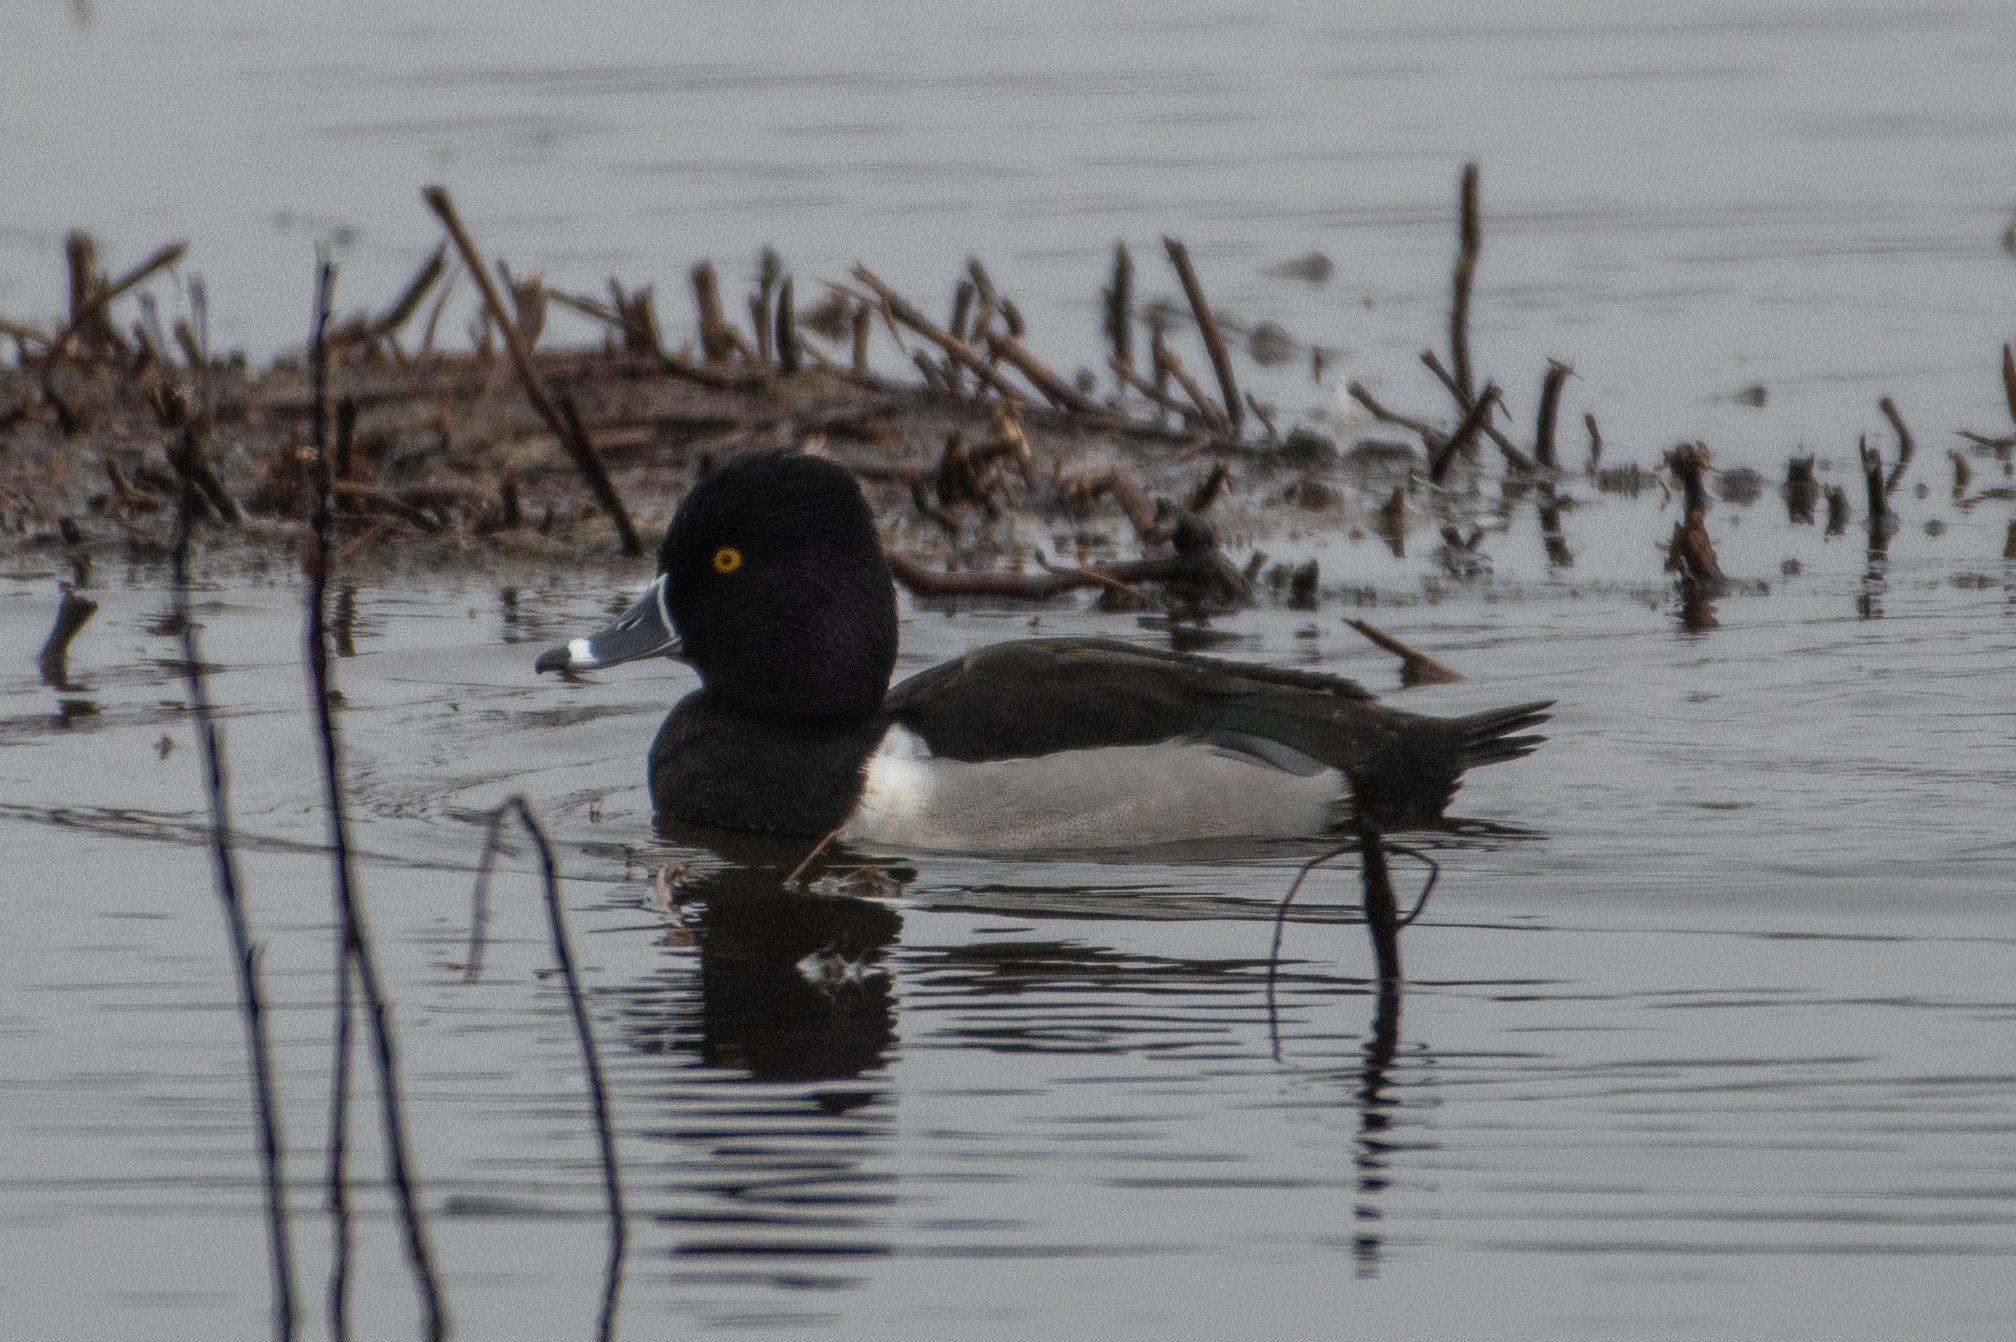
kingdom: Animalia
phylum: Chordata
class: Aves
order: Anseriformes
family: Anatidae
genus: Aythya
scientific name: Aythya collaris
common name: Ring-necked duck
